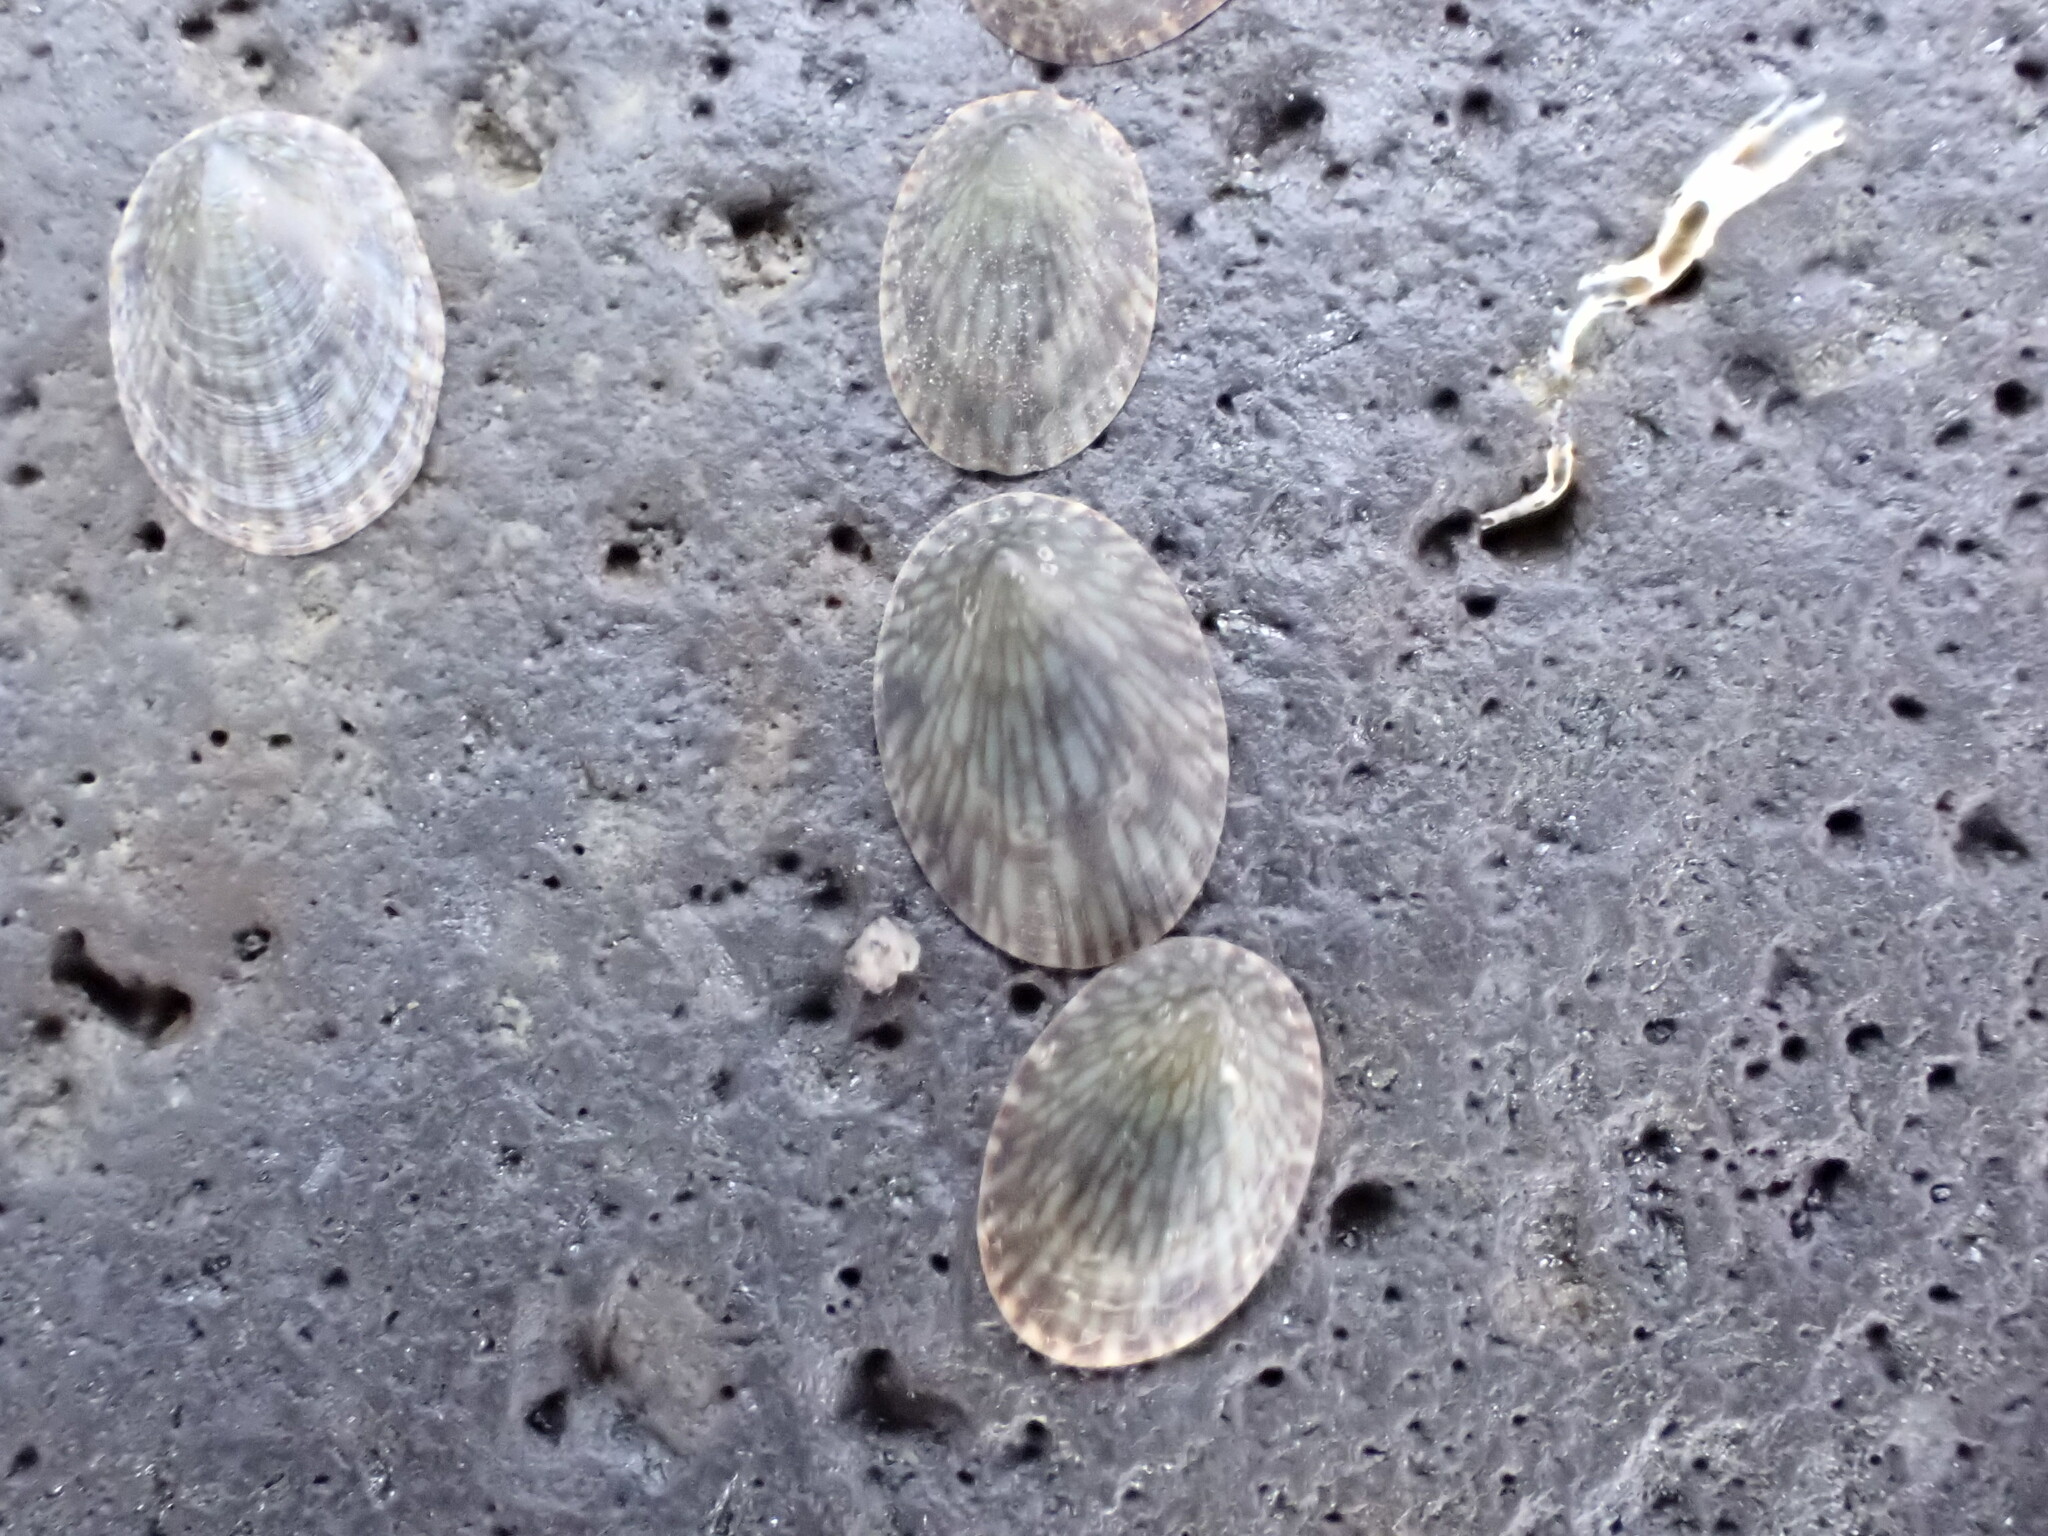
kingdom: Animalia
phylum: Mollusca
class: Gastropoda
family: Lottiidae
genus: Notoacmea
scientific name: Notoacmea
